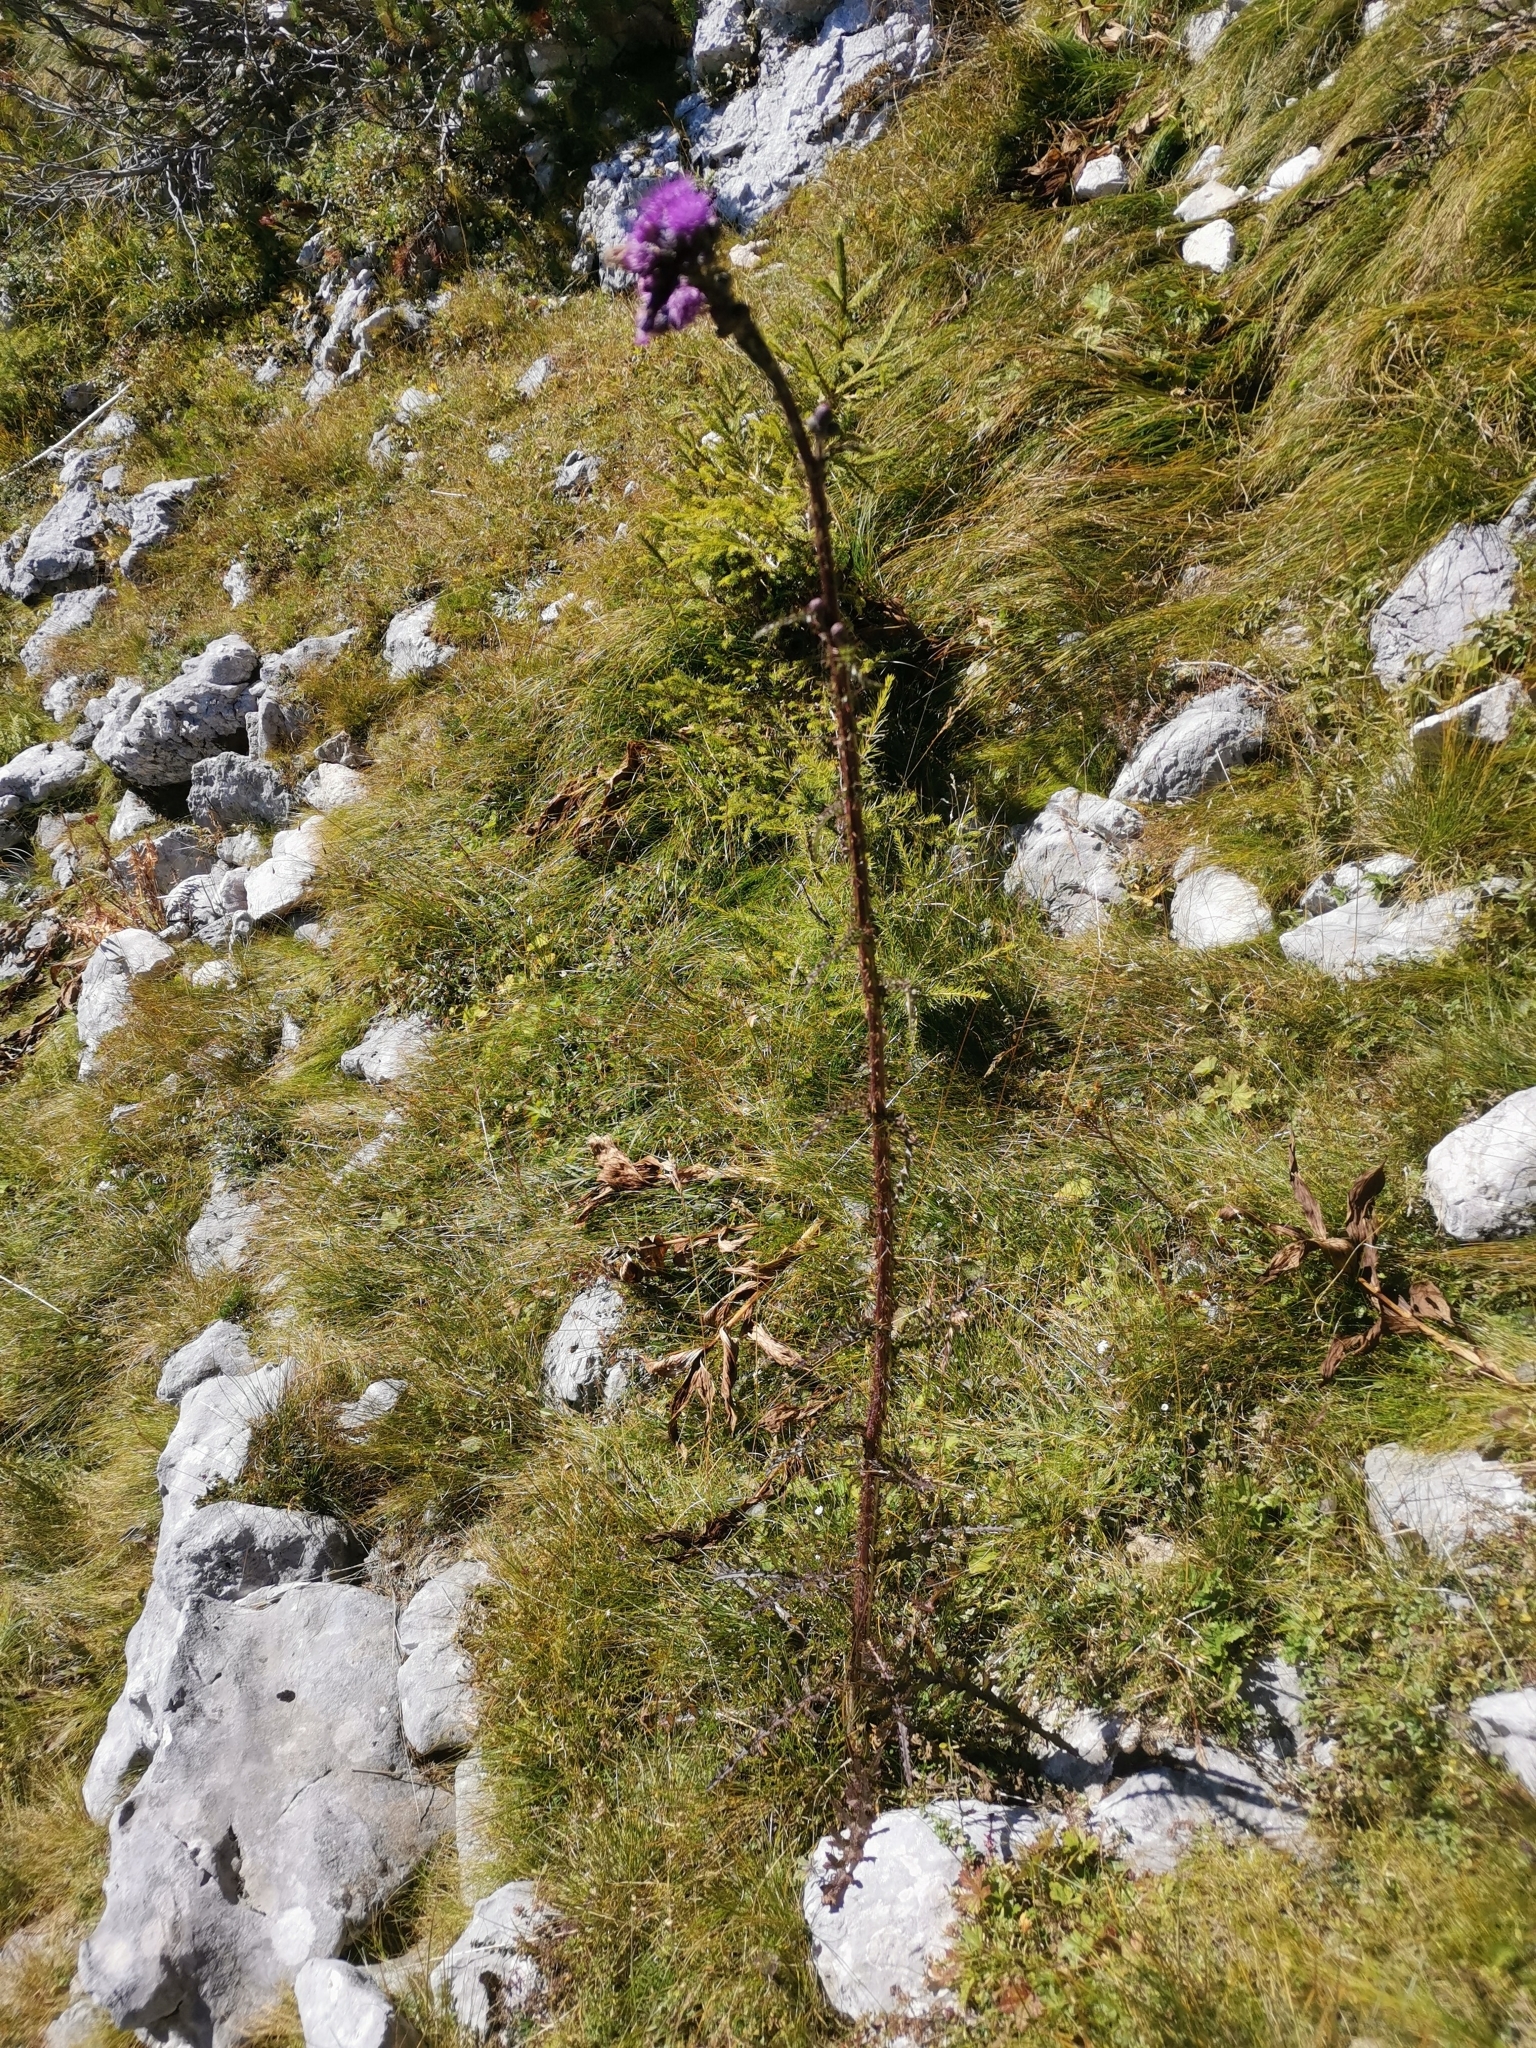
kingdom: Plantae
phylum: Tracheophyta
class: Magnoliopsida
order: Asterales
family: Asteraceae
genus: Cirsium
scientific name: Cirsium palustre
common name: Marsh thistle
